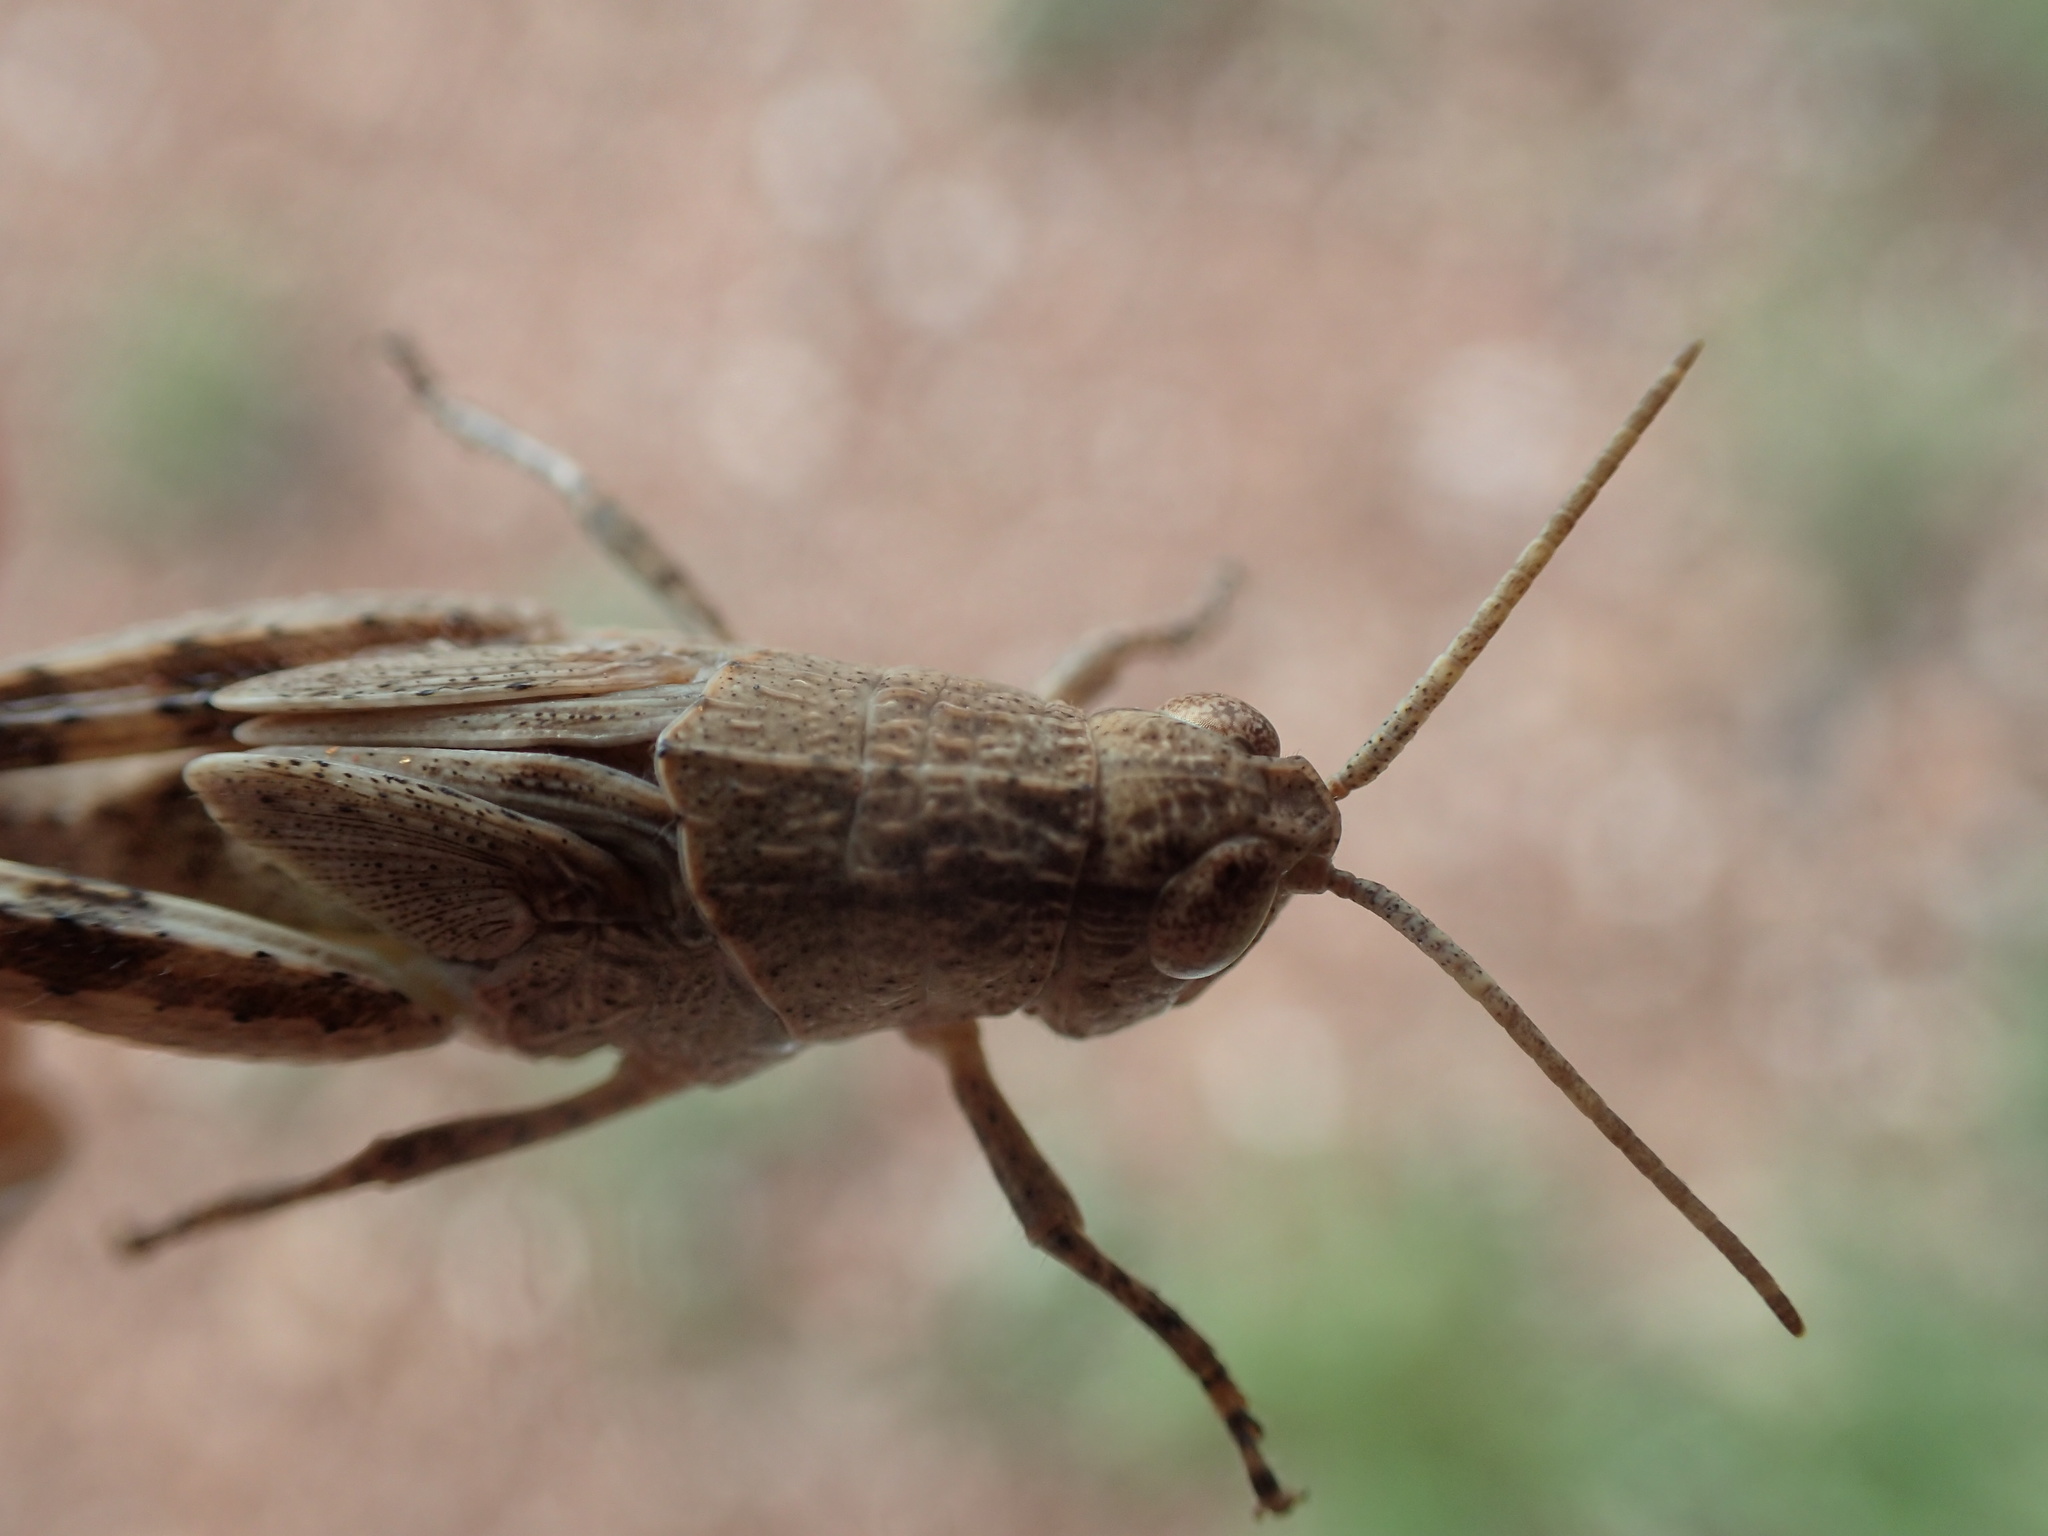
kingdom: Animalia
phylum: Arthropoda
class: Insecta
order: Orthoptera
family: Acrididae
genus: Desertaria
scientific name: Desertaria fasciata
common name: Striped ungee-gungee
